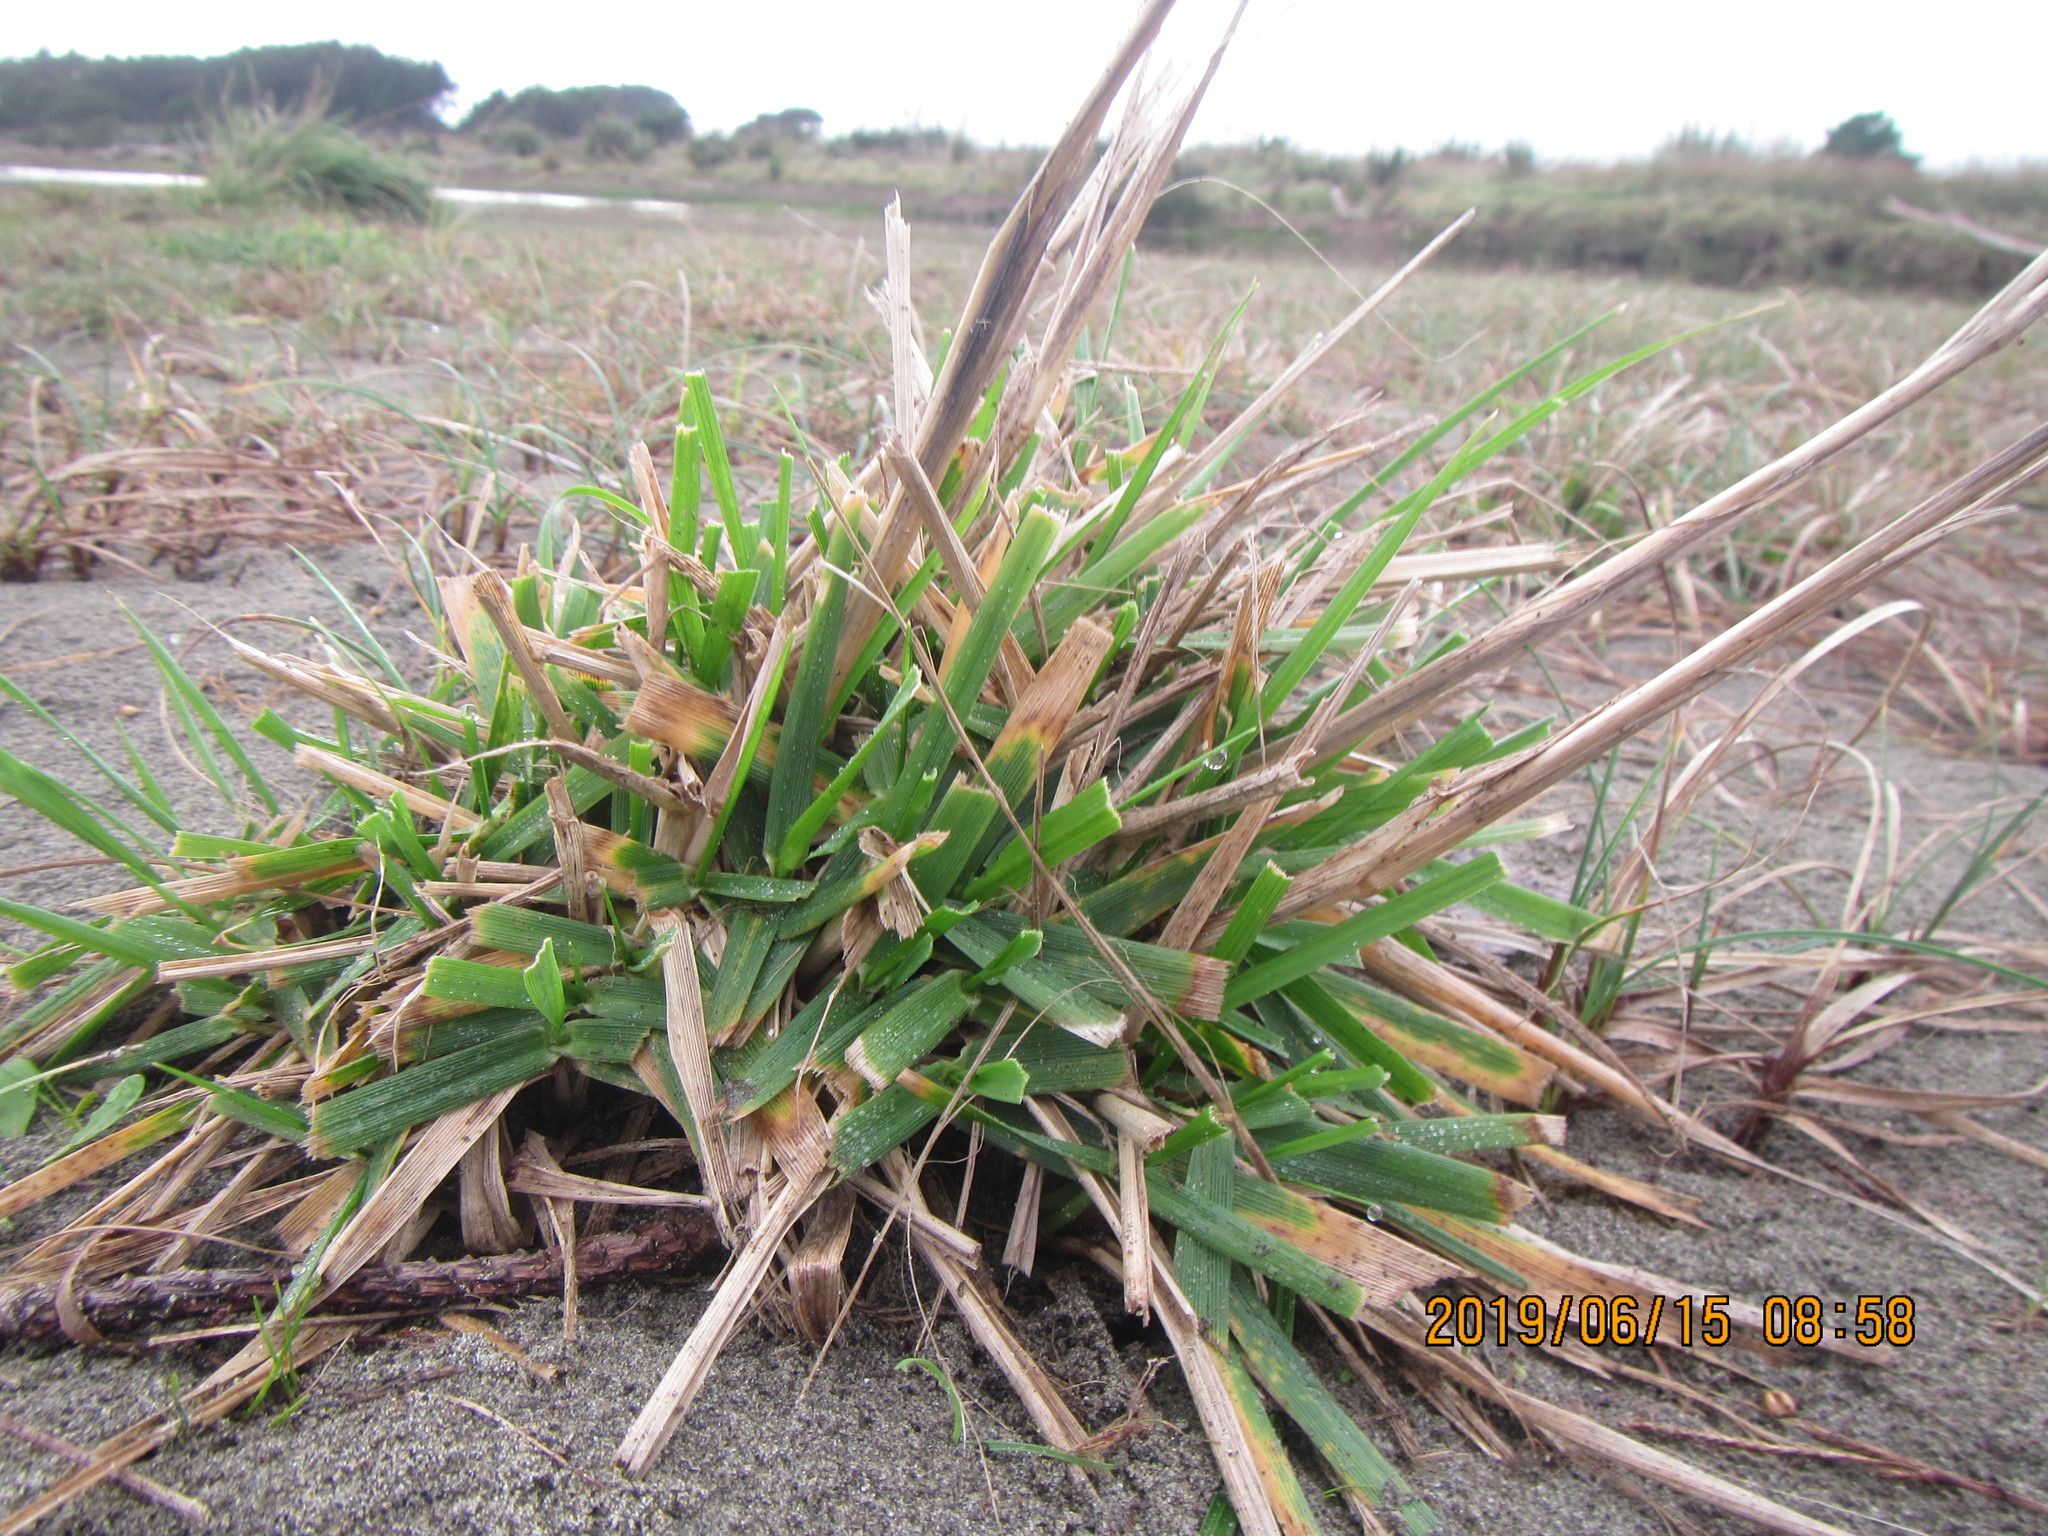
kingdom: Plantae
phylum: Tracheophyta
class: Liliopsida
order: Poales
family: Poaceae
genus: Lachnagrostis
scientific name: Lachnagrostis billardierei
